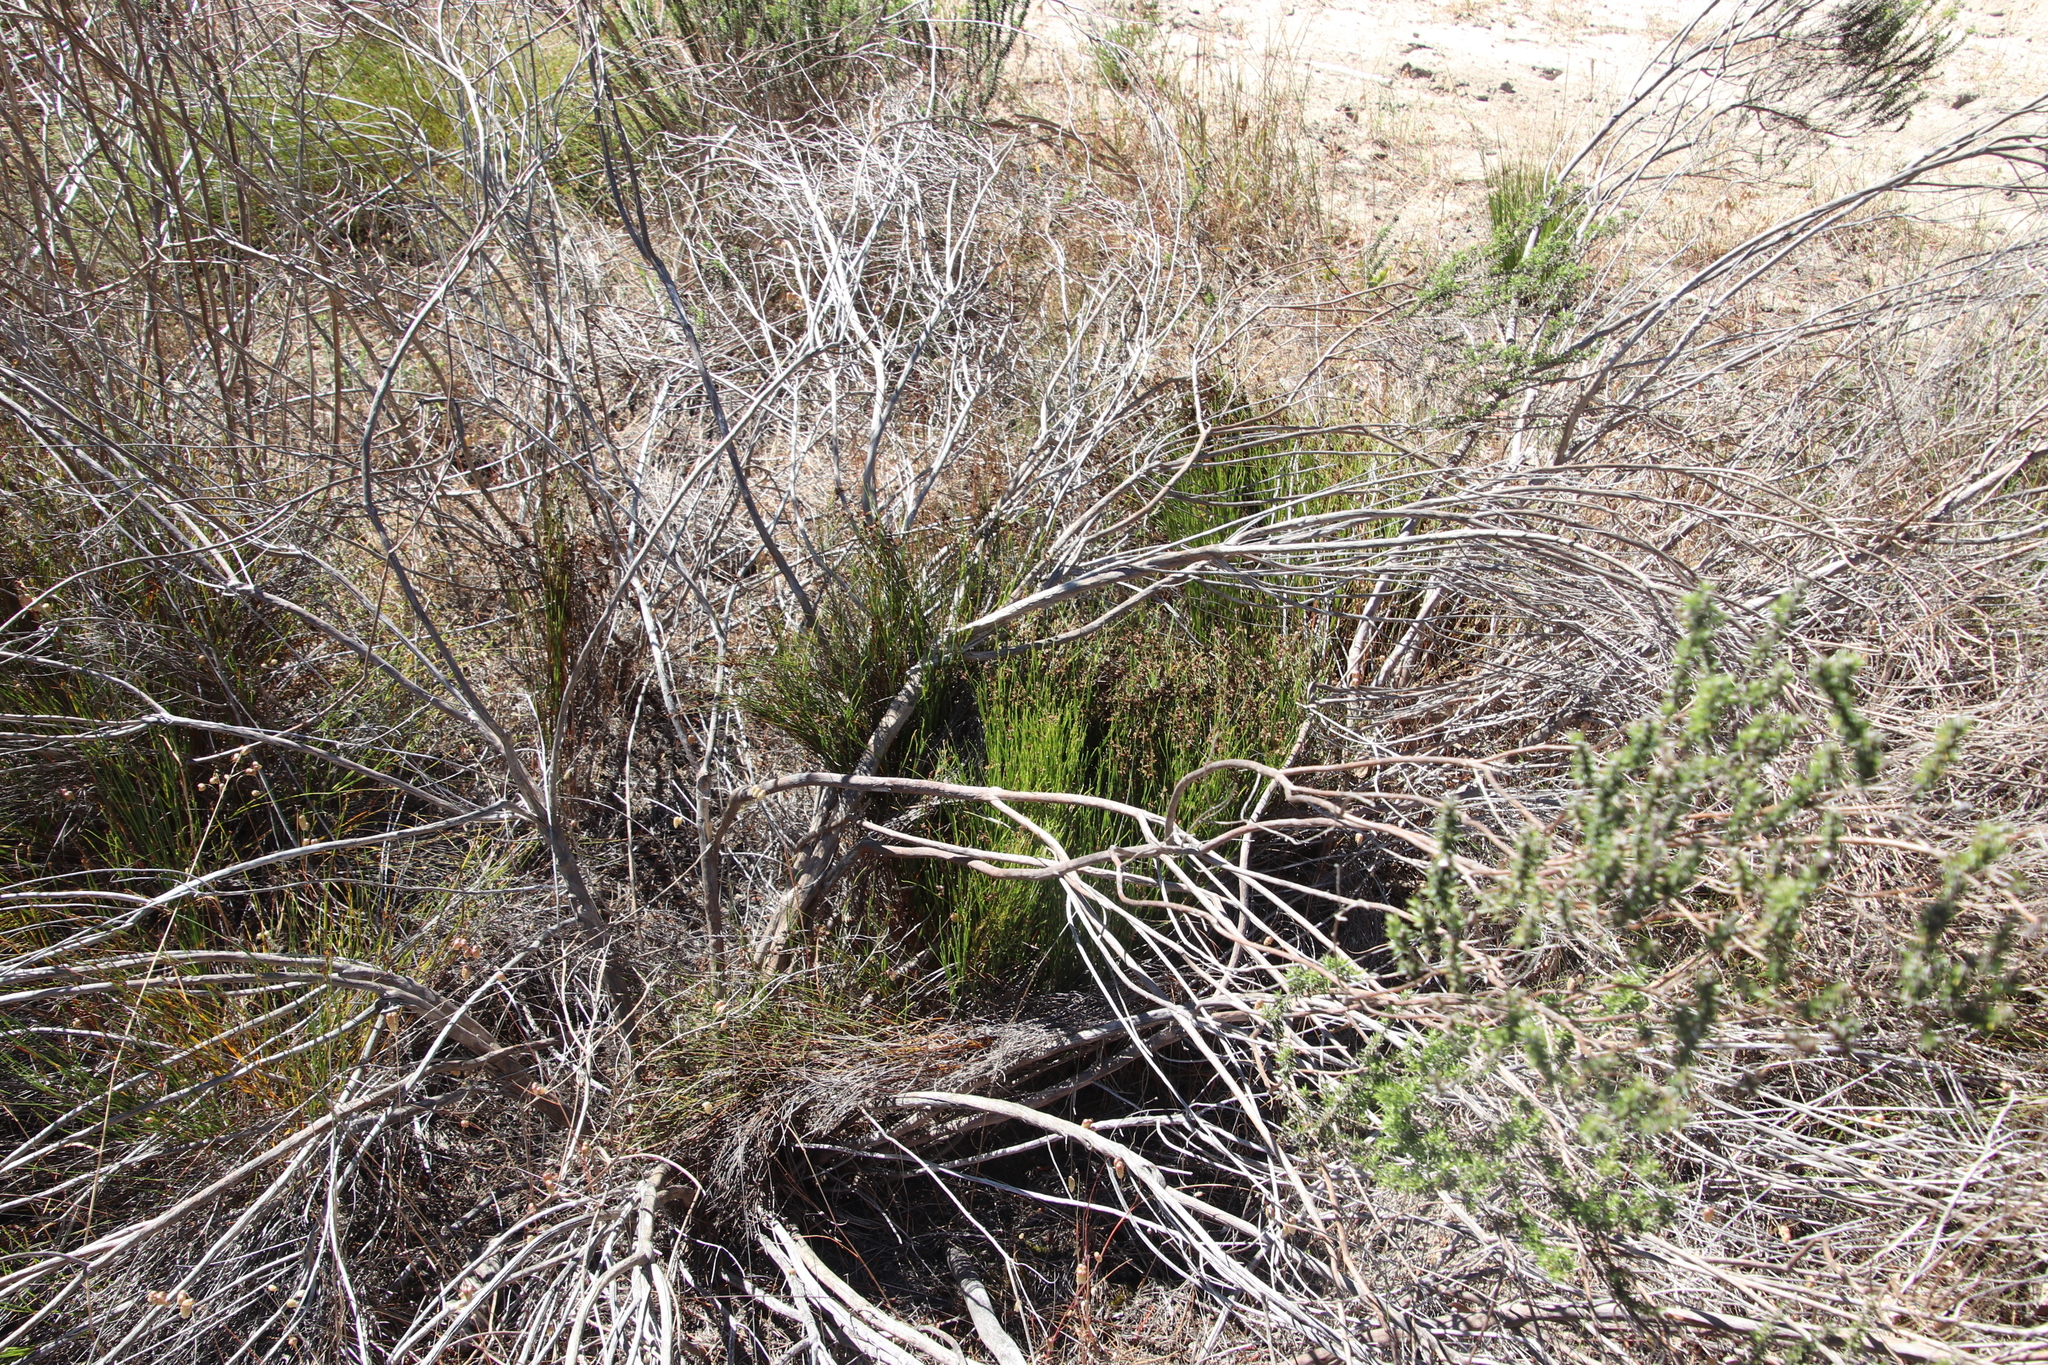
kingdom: Plantae
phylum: Tracheophyta
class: Liliopsida
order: Poales
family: Restionaceae
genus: Mastersiella
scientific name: Mastersiella digitata
